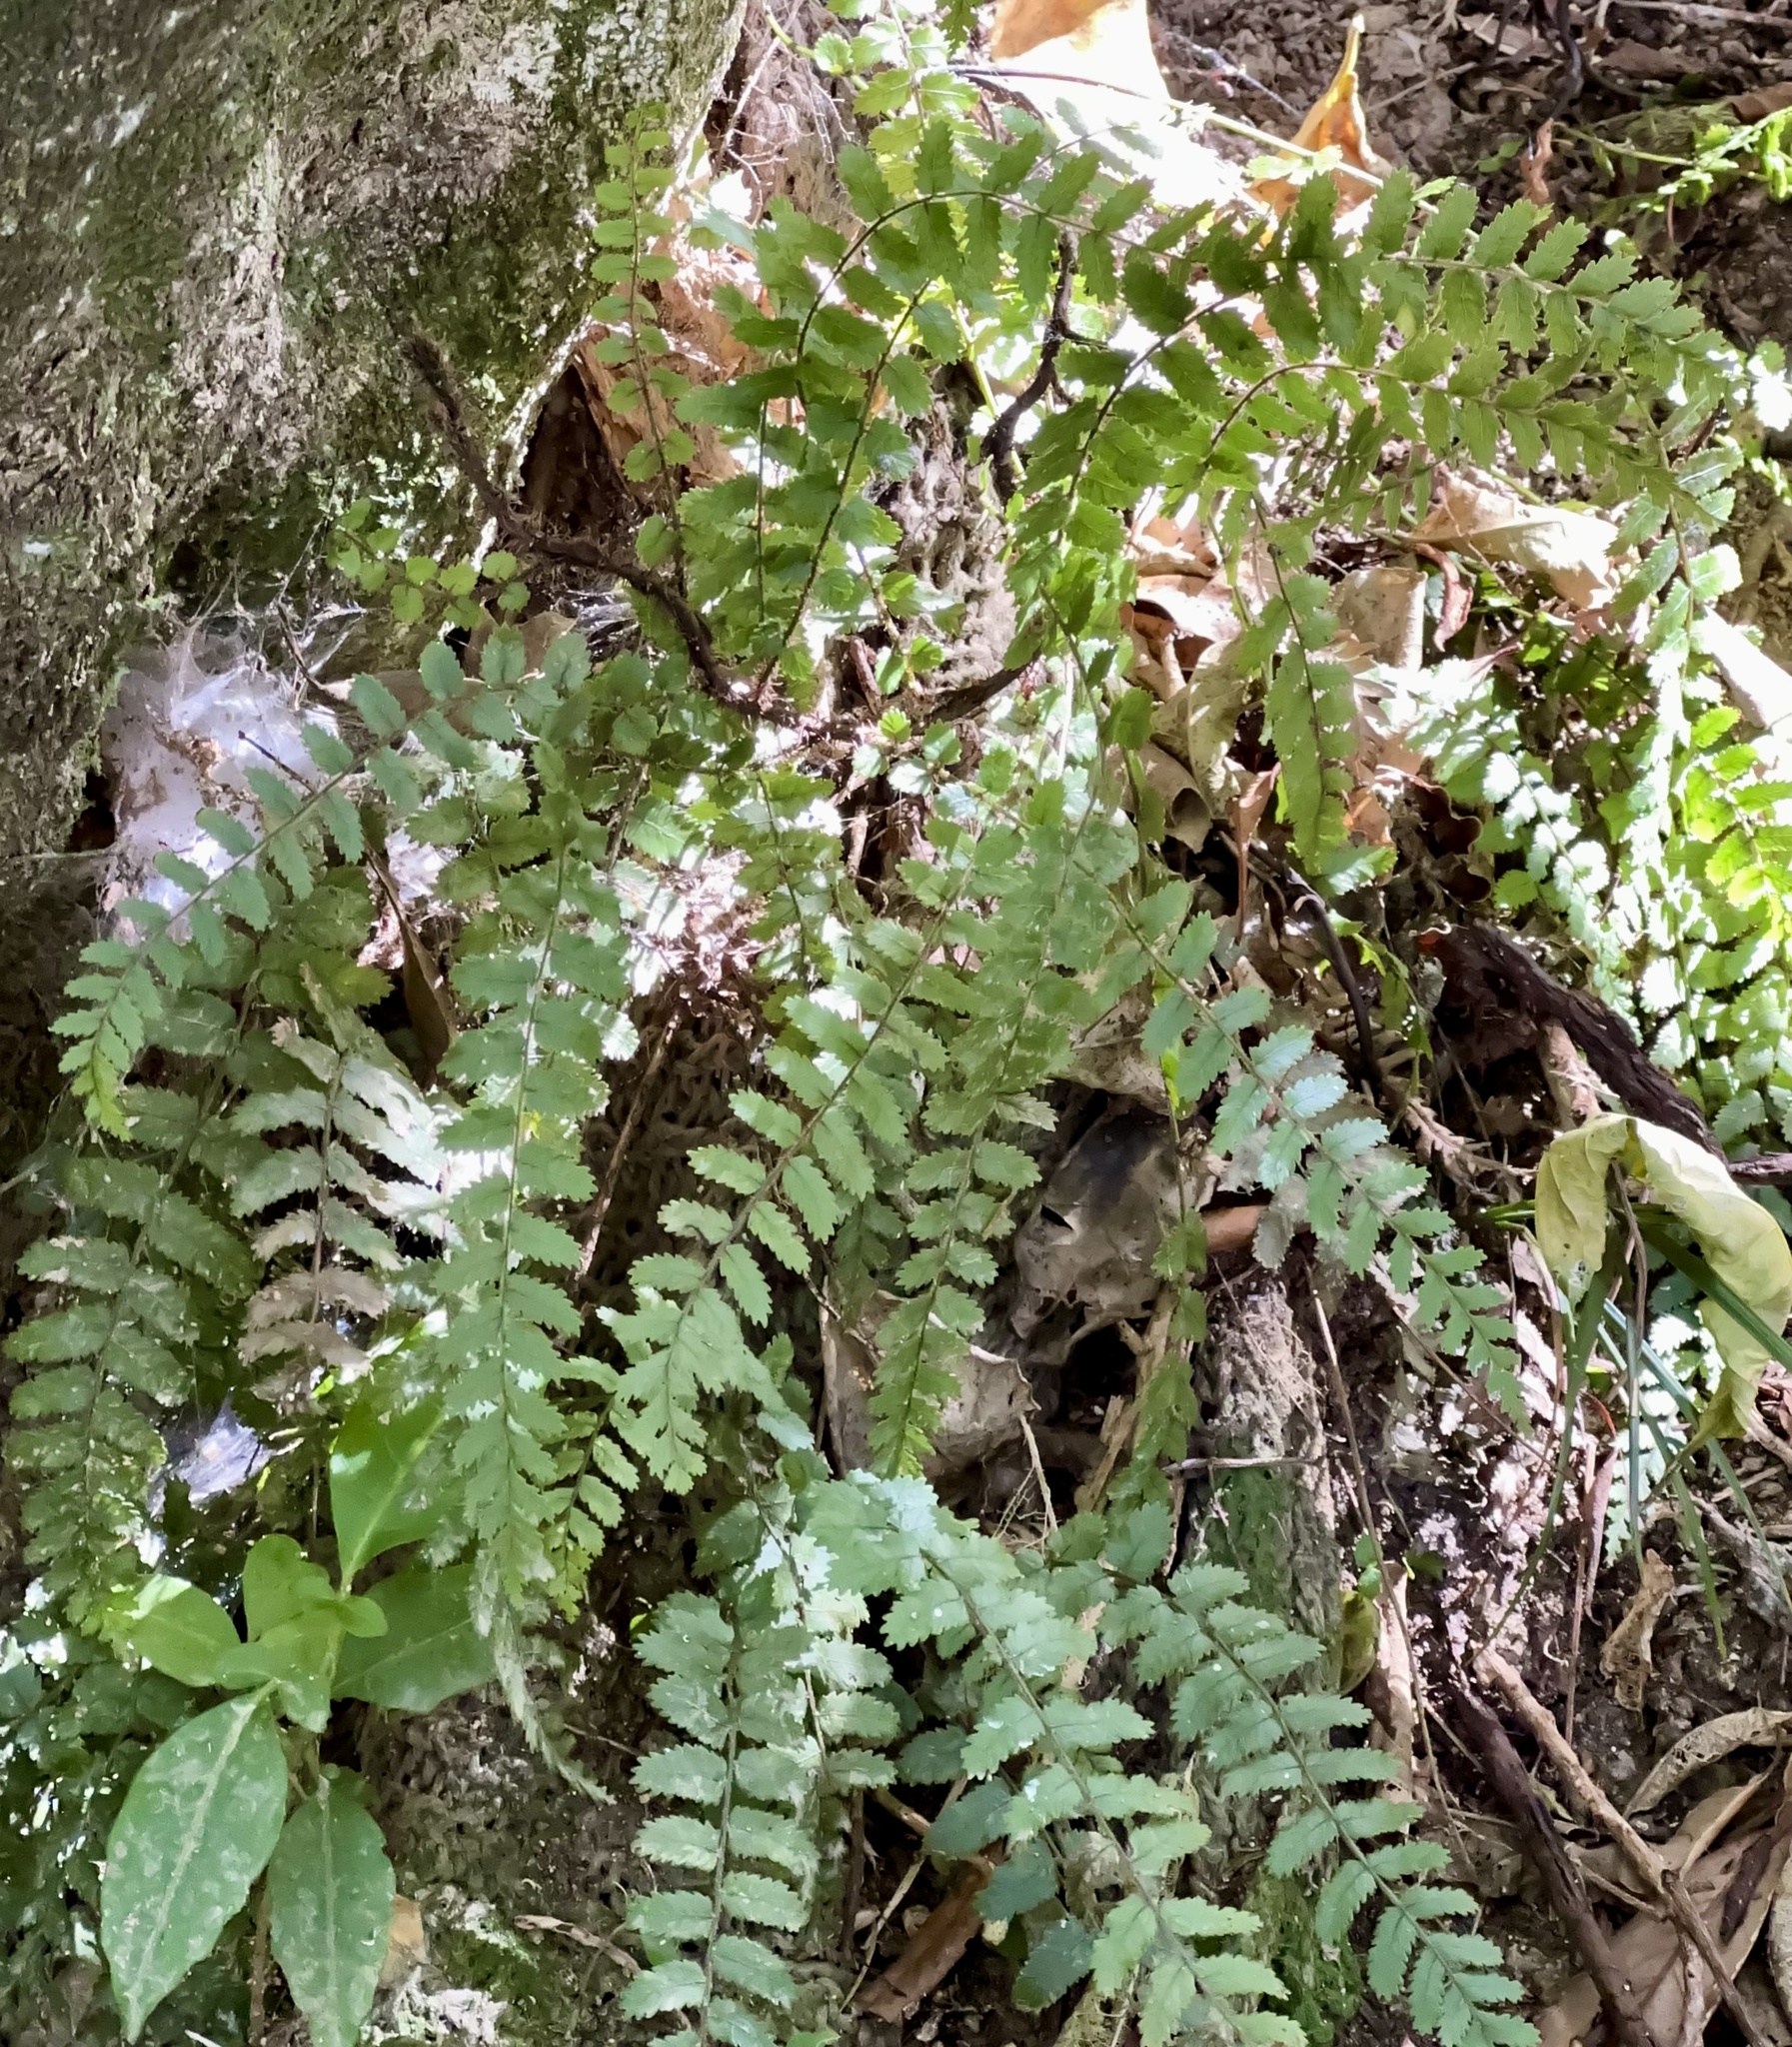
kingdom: Plantae
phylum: Tracheophyta
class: Polypodiopsida
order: Polypodiales
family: Blechnaceae
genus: Icarus
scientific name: Icarus filiformis
